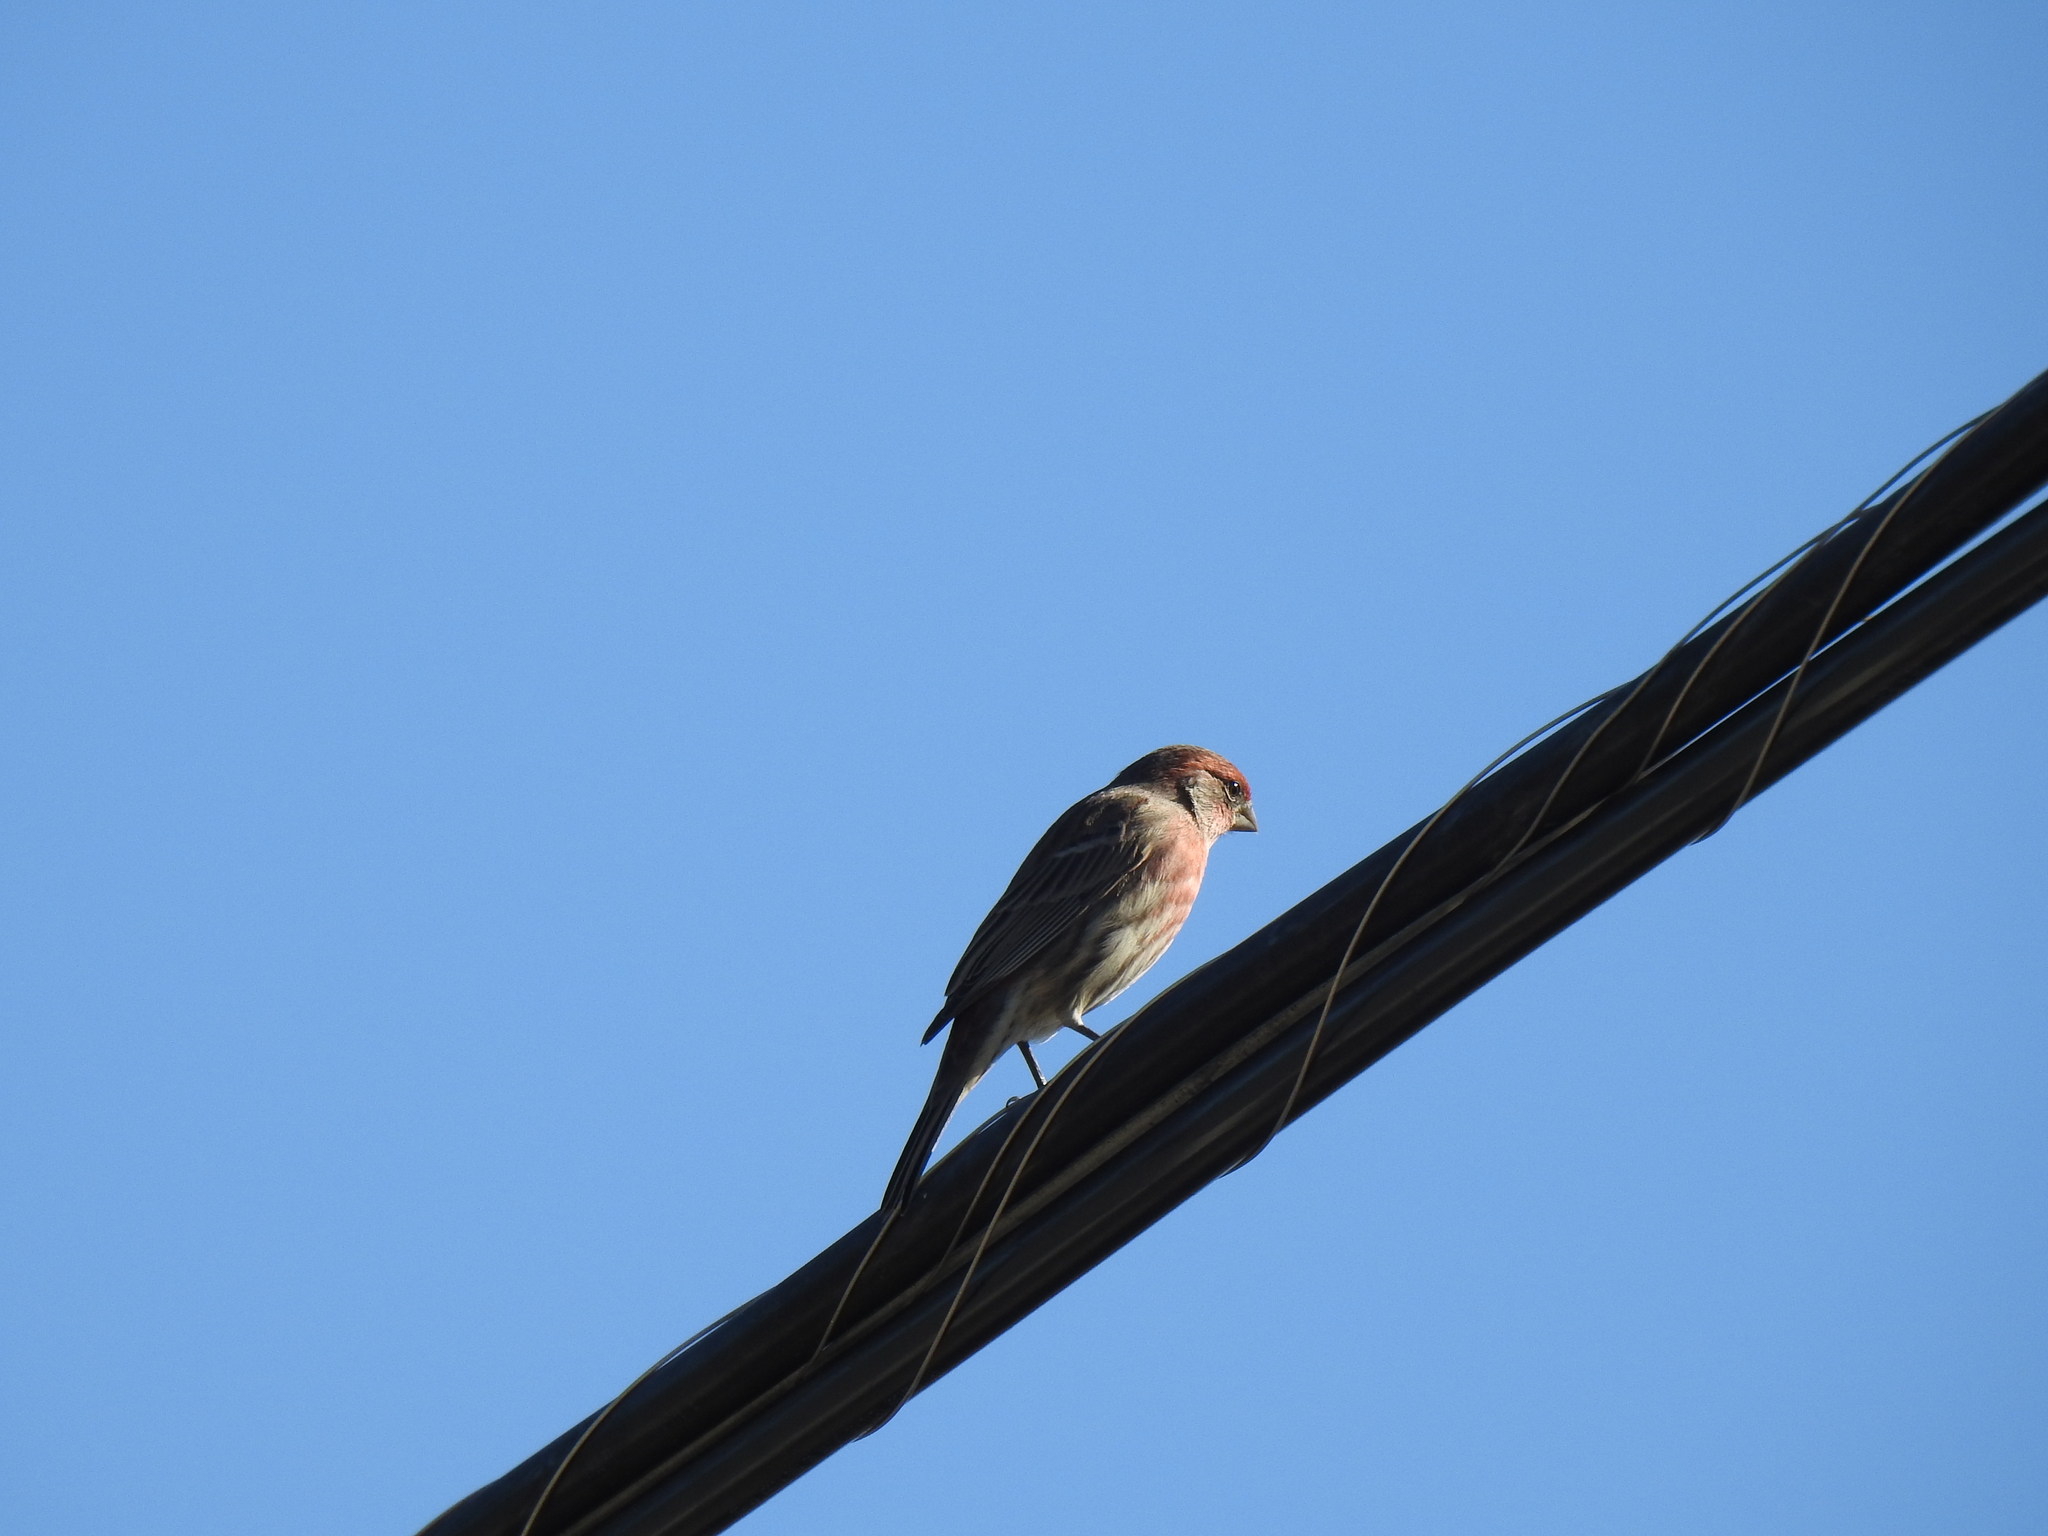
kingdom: Animalia
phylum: Chordata
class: Aves
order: Passeriformes
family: Fringillidae
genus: Haemorhous
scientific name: Haemorhous mexicanus
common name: House finch
